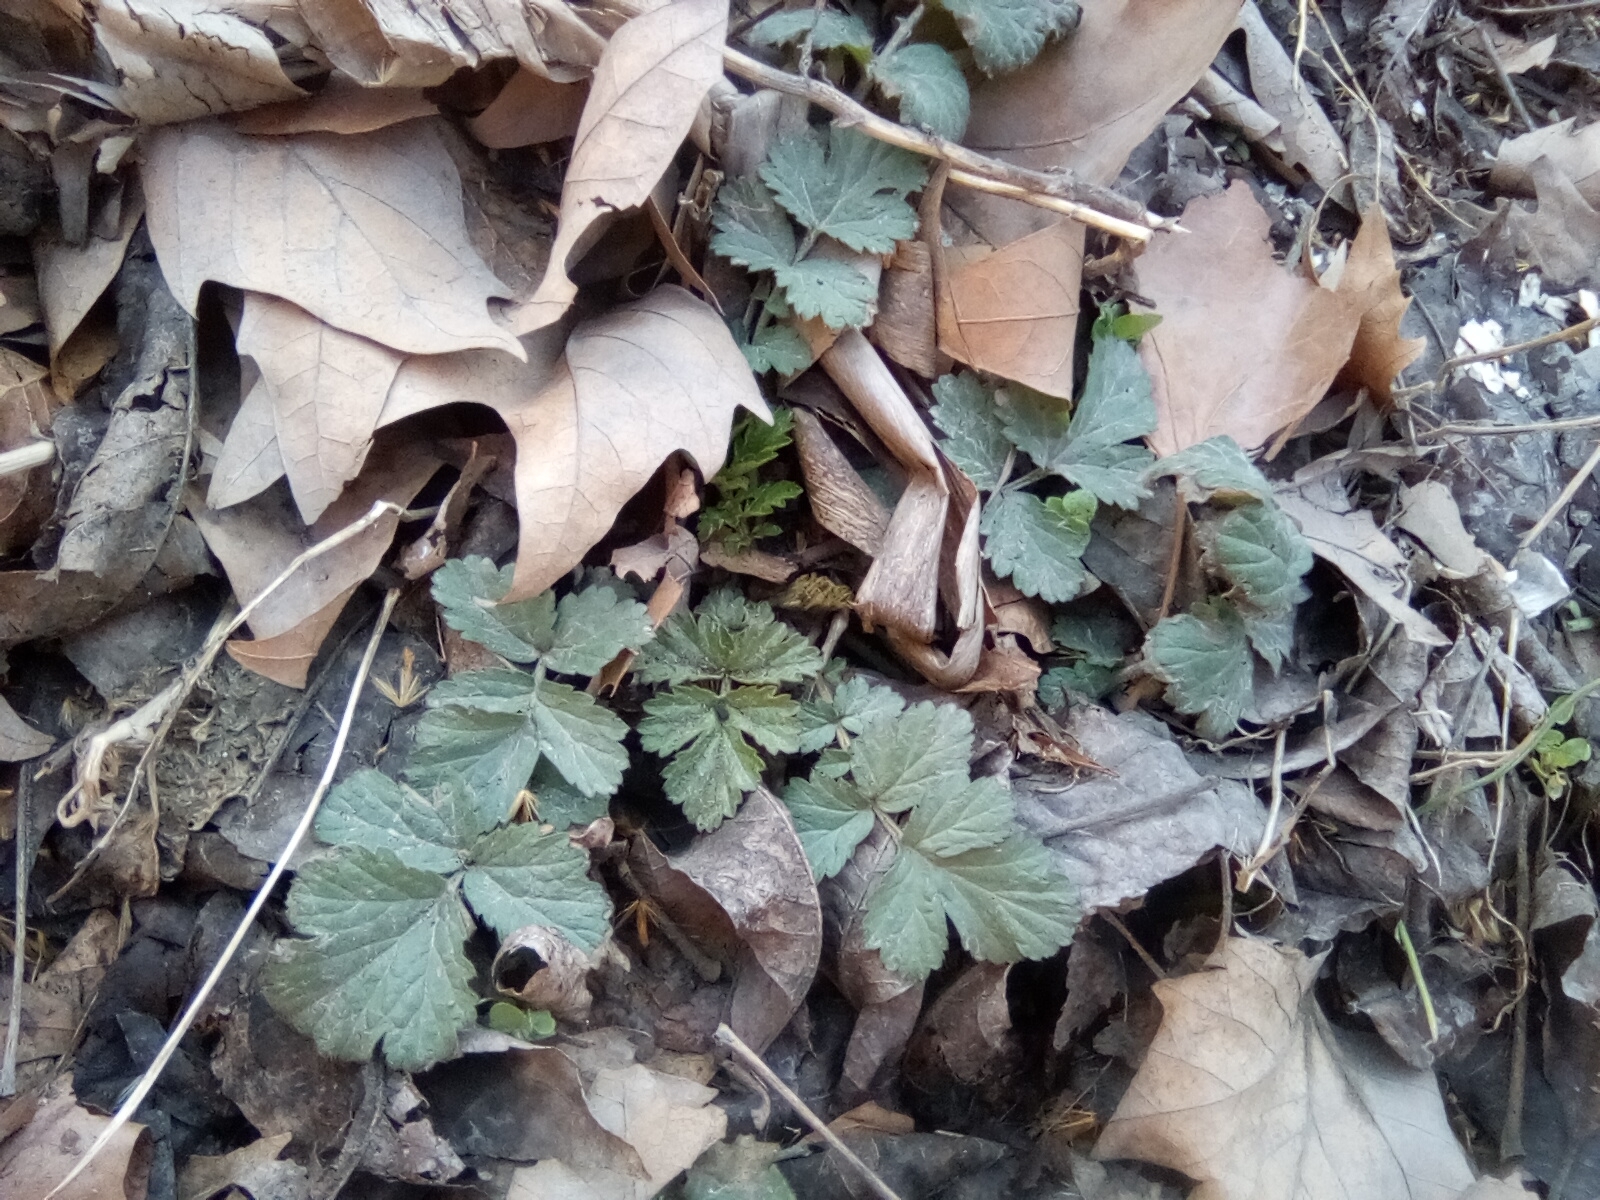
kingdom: Plantae
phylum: Tracheophyta
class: Magnoliopsida
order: Rosales
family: Rosaceae
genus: Geum
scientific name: Geum
